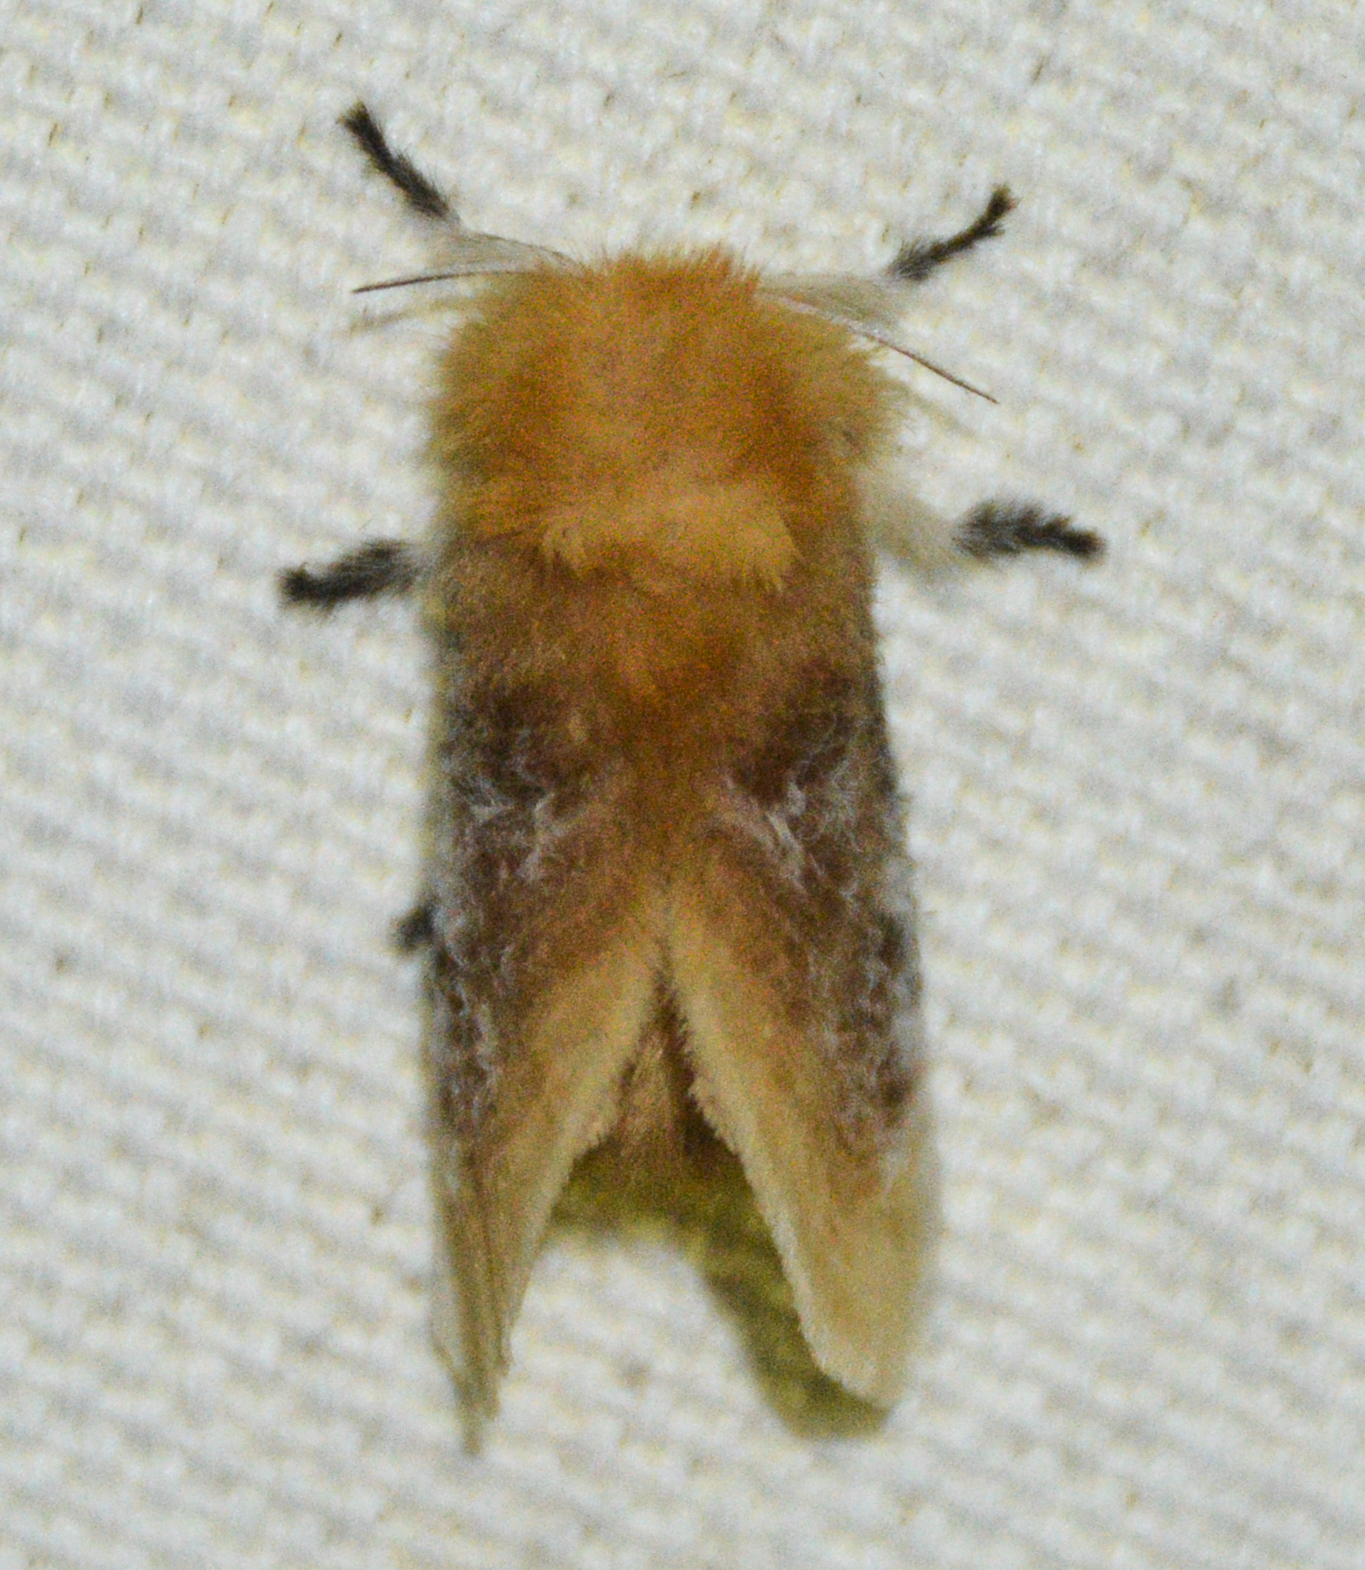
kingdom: Animalia
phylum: Arthropoda
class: Insecta
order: Lepidoptera
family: Megalopygidae
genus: Megalopyge
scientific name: Megalopyge opercularis
